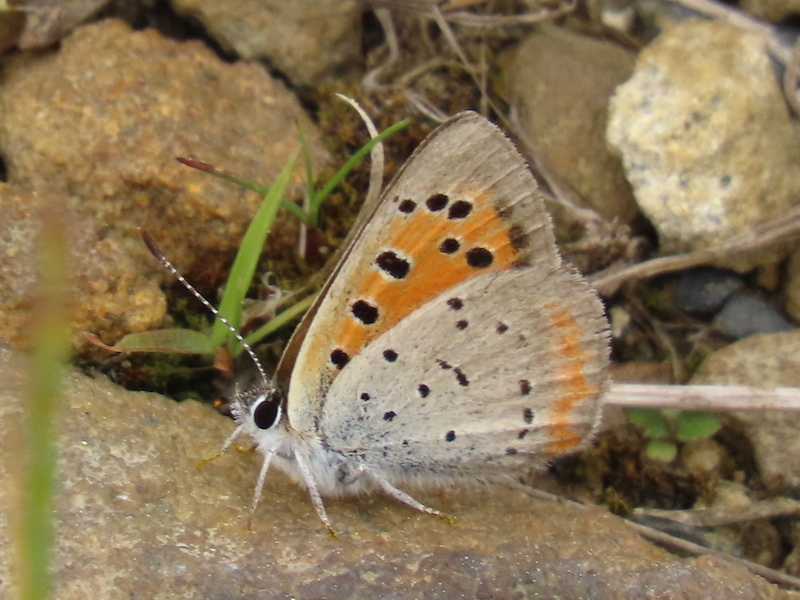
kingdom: Animalia
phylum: Arthropoda
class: Insecta
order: Lepidoptera
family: Lycaenidae
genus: Lycaena
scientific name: Lycaena hypophlaeas
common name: American copper
